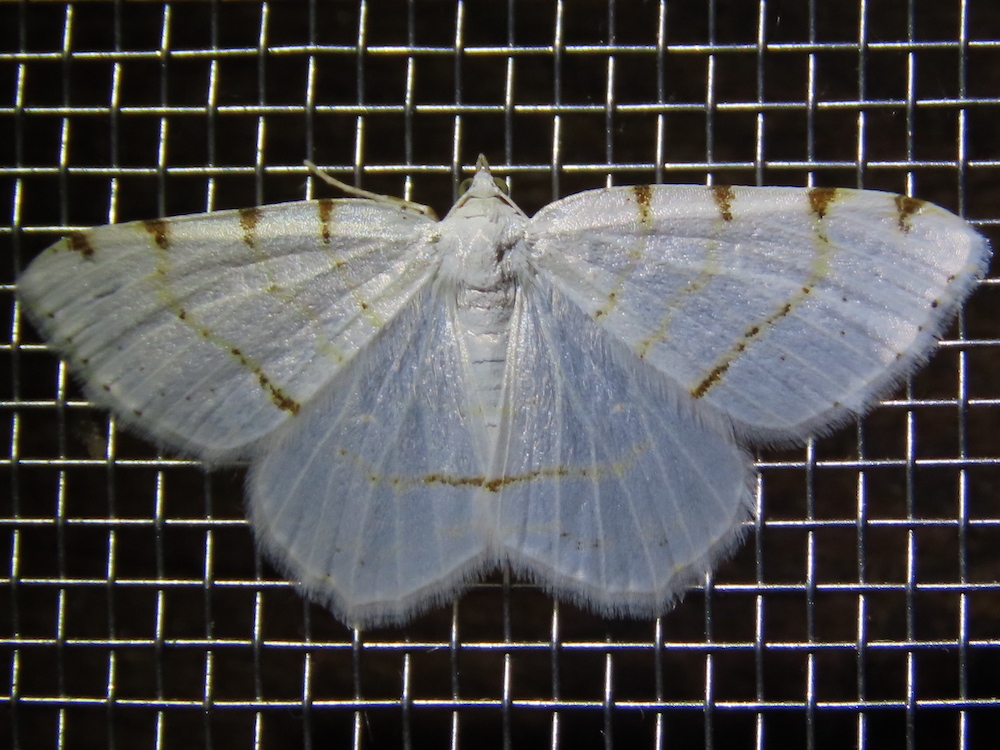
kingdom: Animalia
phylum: Arthropoda
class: Insecta
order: Lepidoptera
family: Geometridae
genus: Macaria
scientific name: Macaria pustularia
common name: Lesser maple spanworm moth
